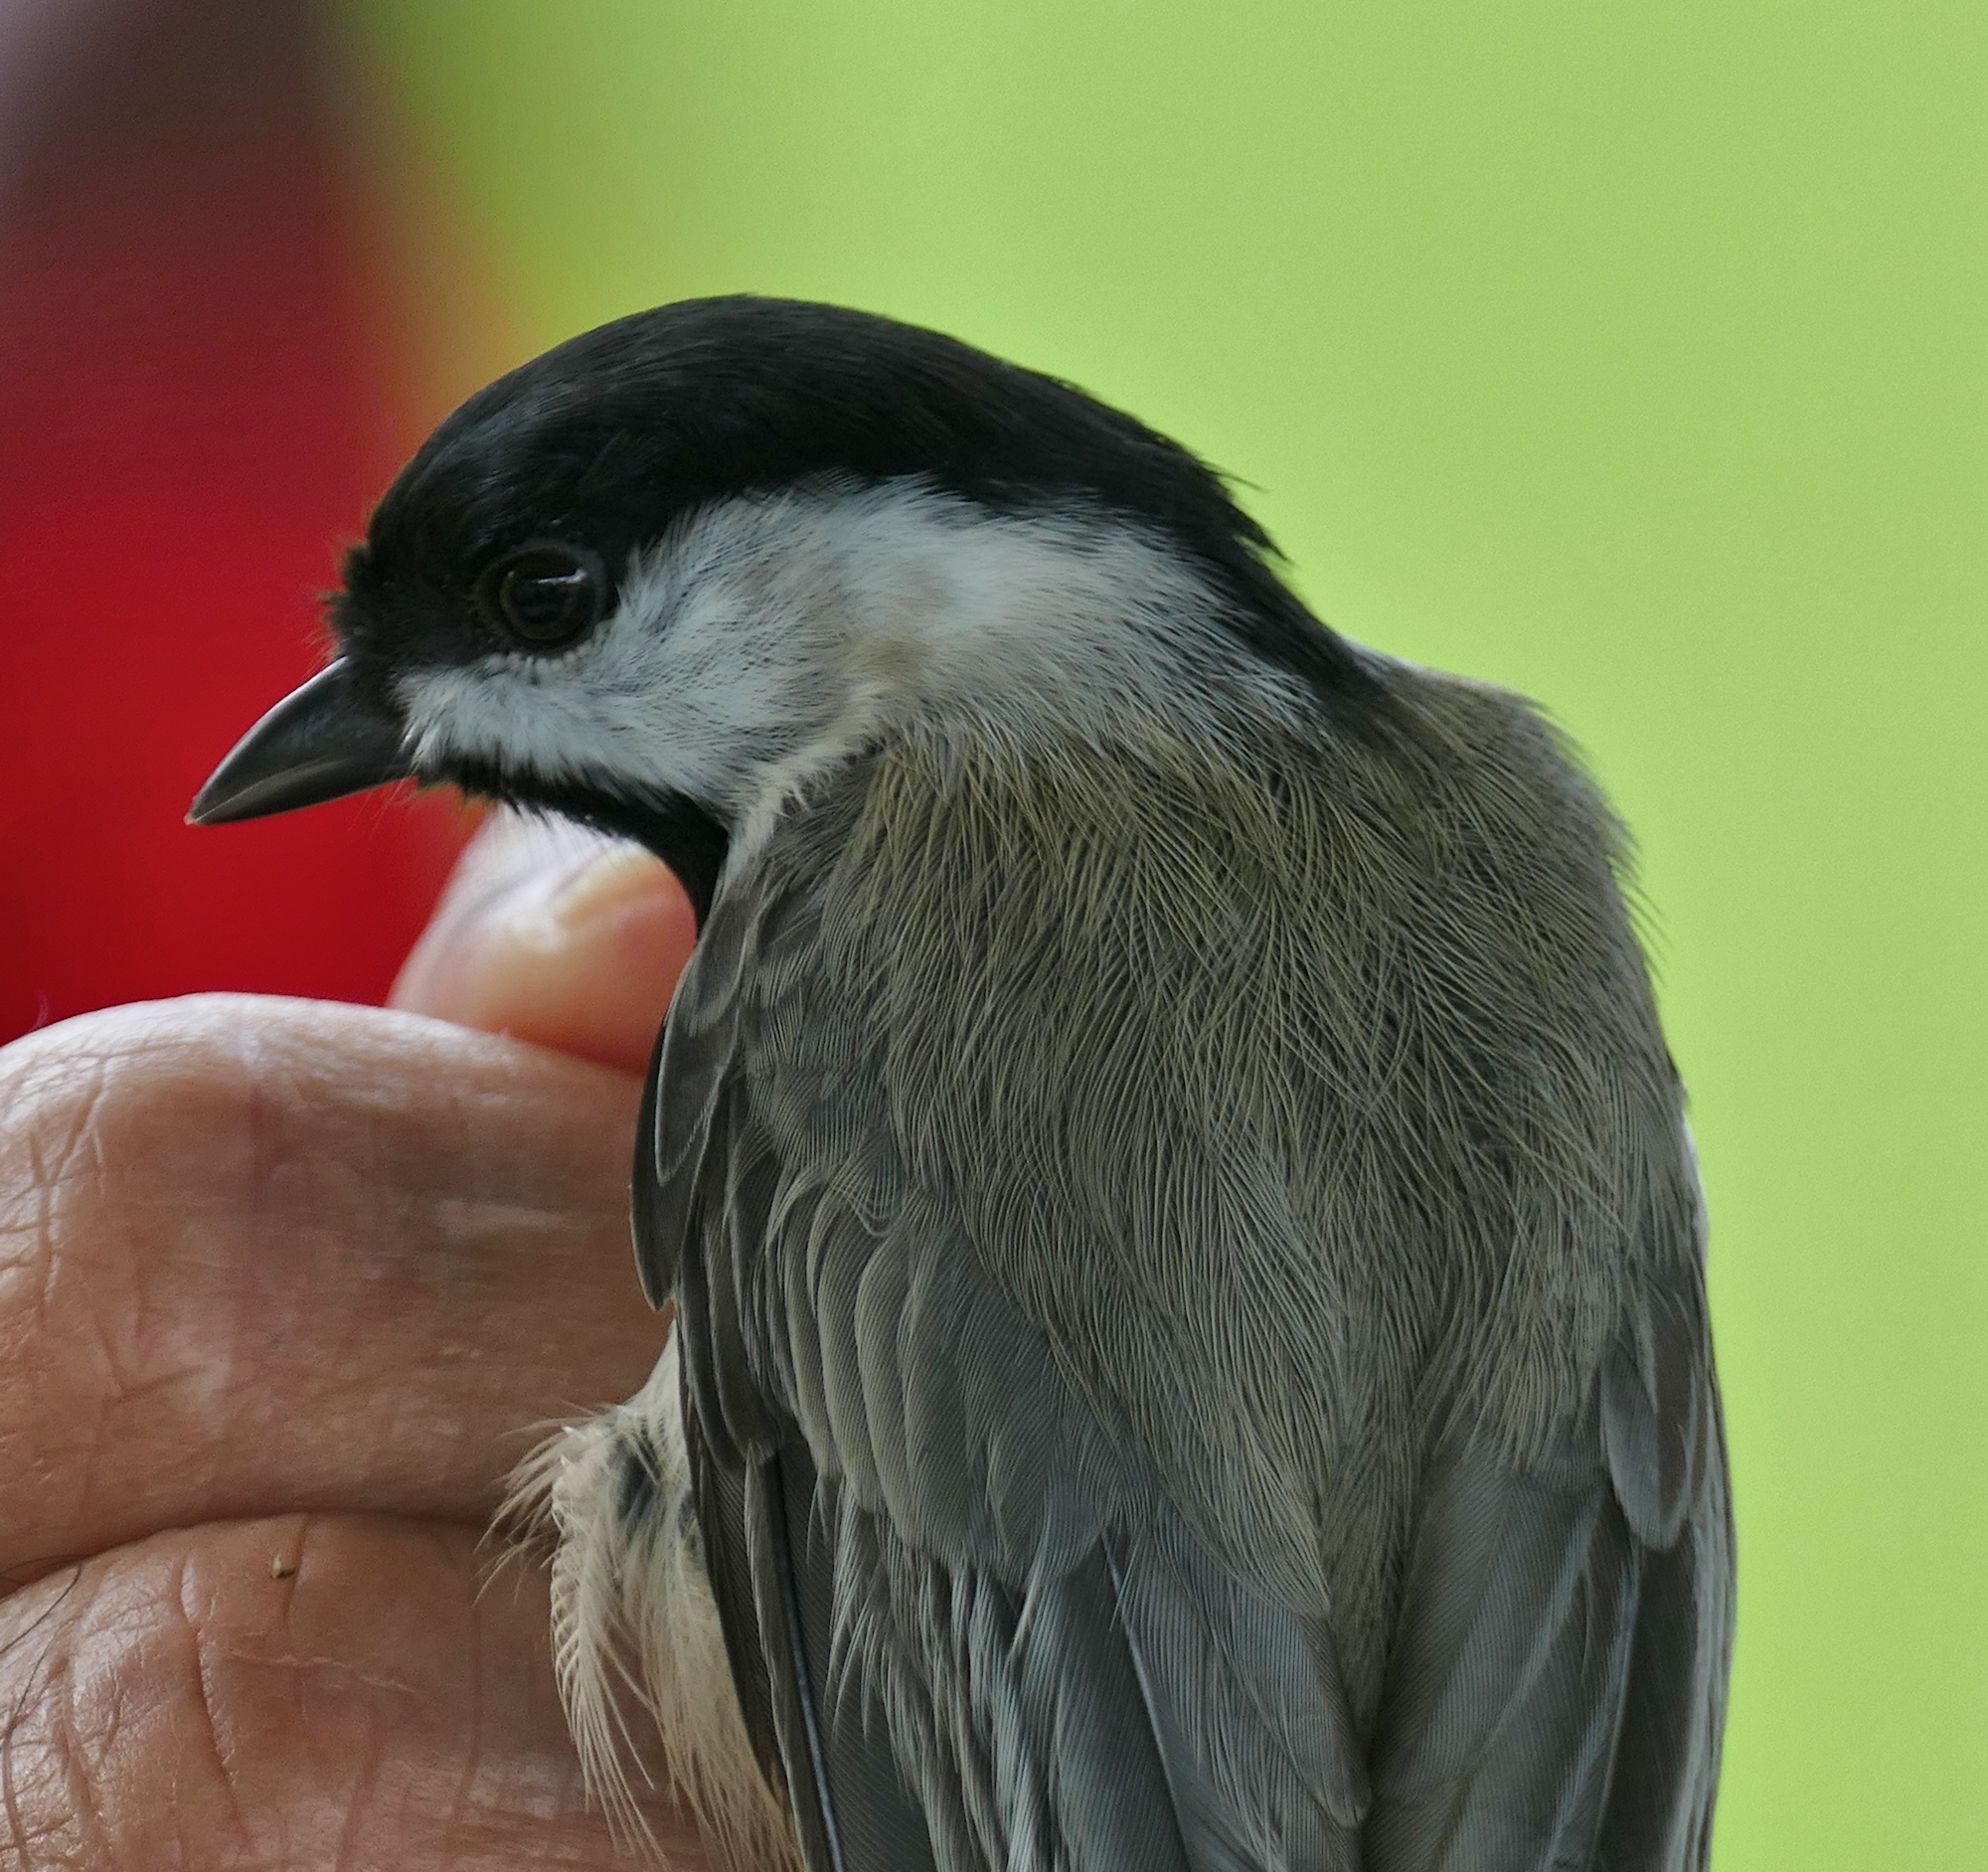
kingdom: Animalia
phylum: Chordata
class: Aves
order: Passeriformes
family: Paridae
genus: Poecile
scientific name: Poecile carolinensis
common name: Carolina chickadee
